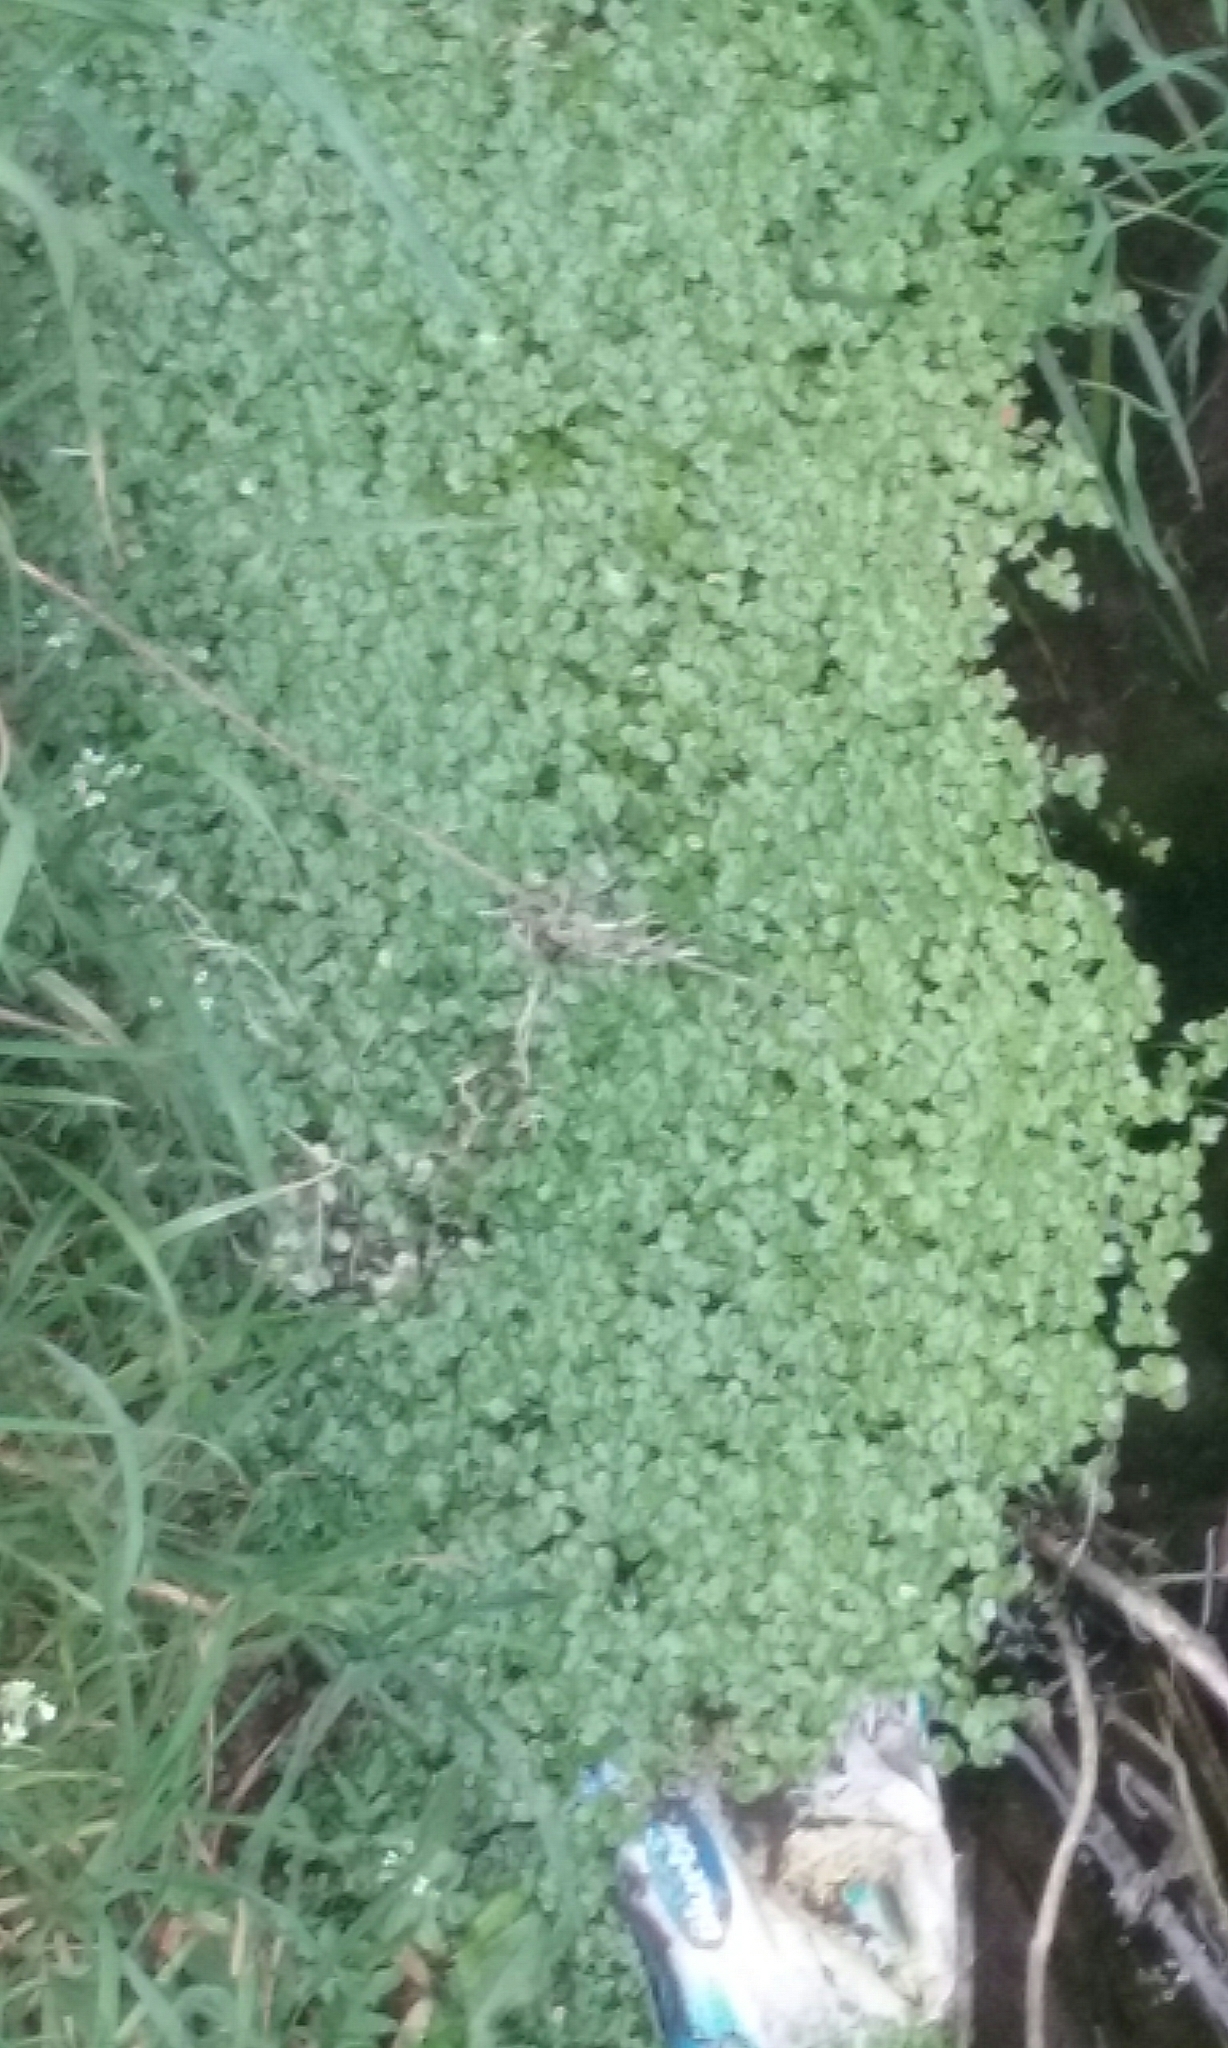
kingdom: Plantae
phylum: Tracheophyta
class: Magnoliopsida
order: Lamiales
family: Plantaginaceae
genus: Callitriche
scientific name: Callitriche stagnalis
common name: Common water-starwort
